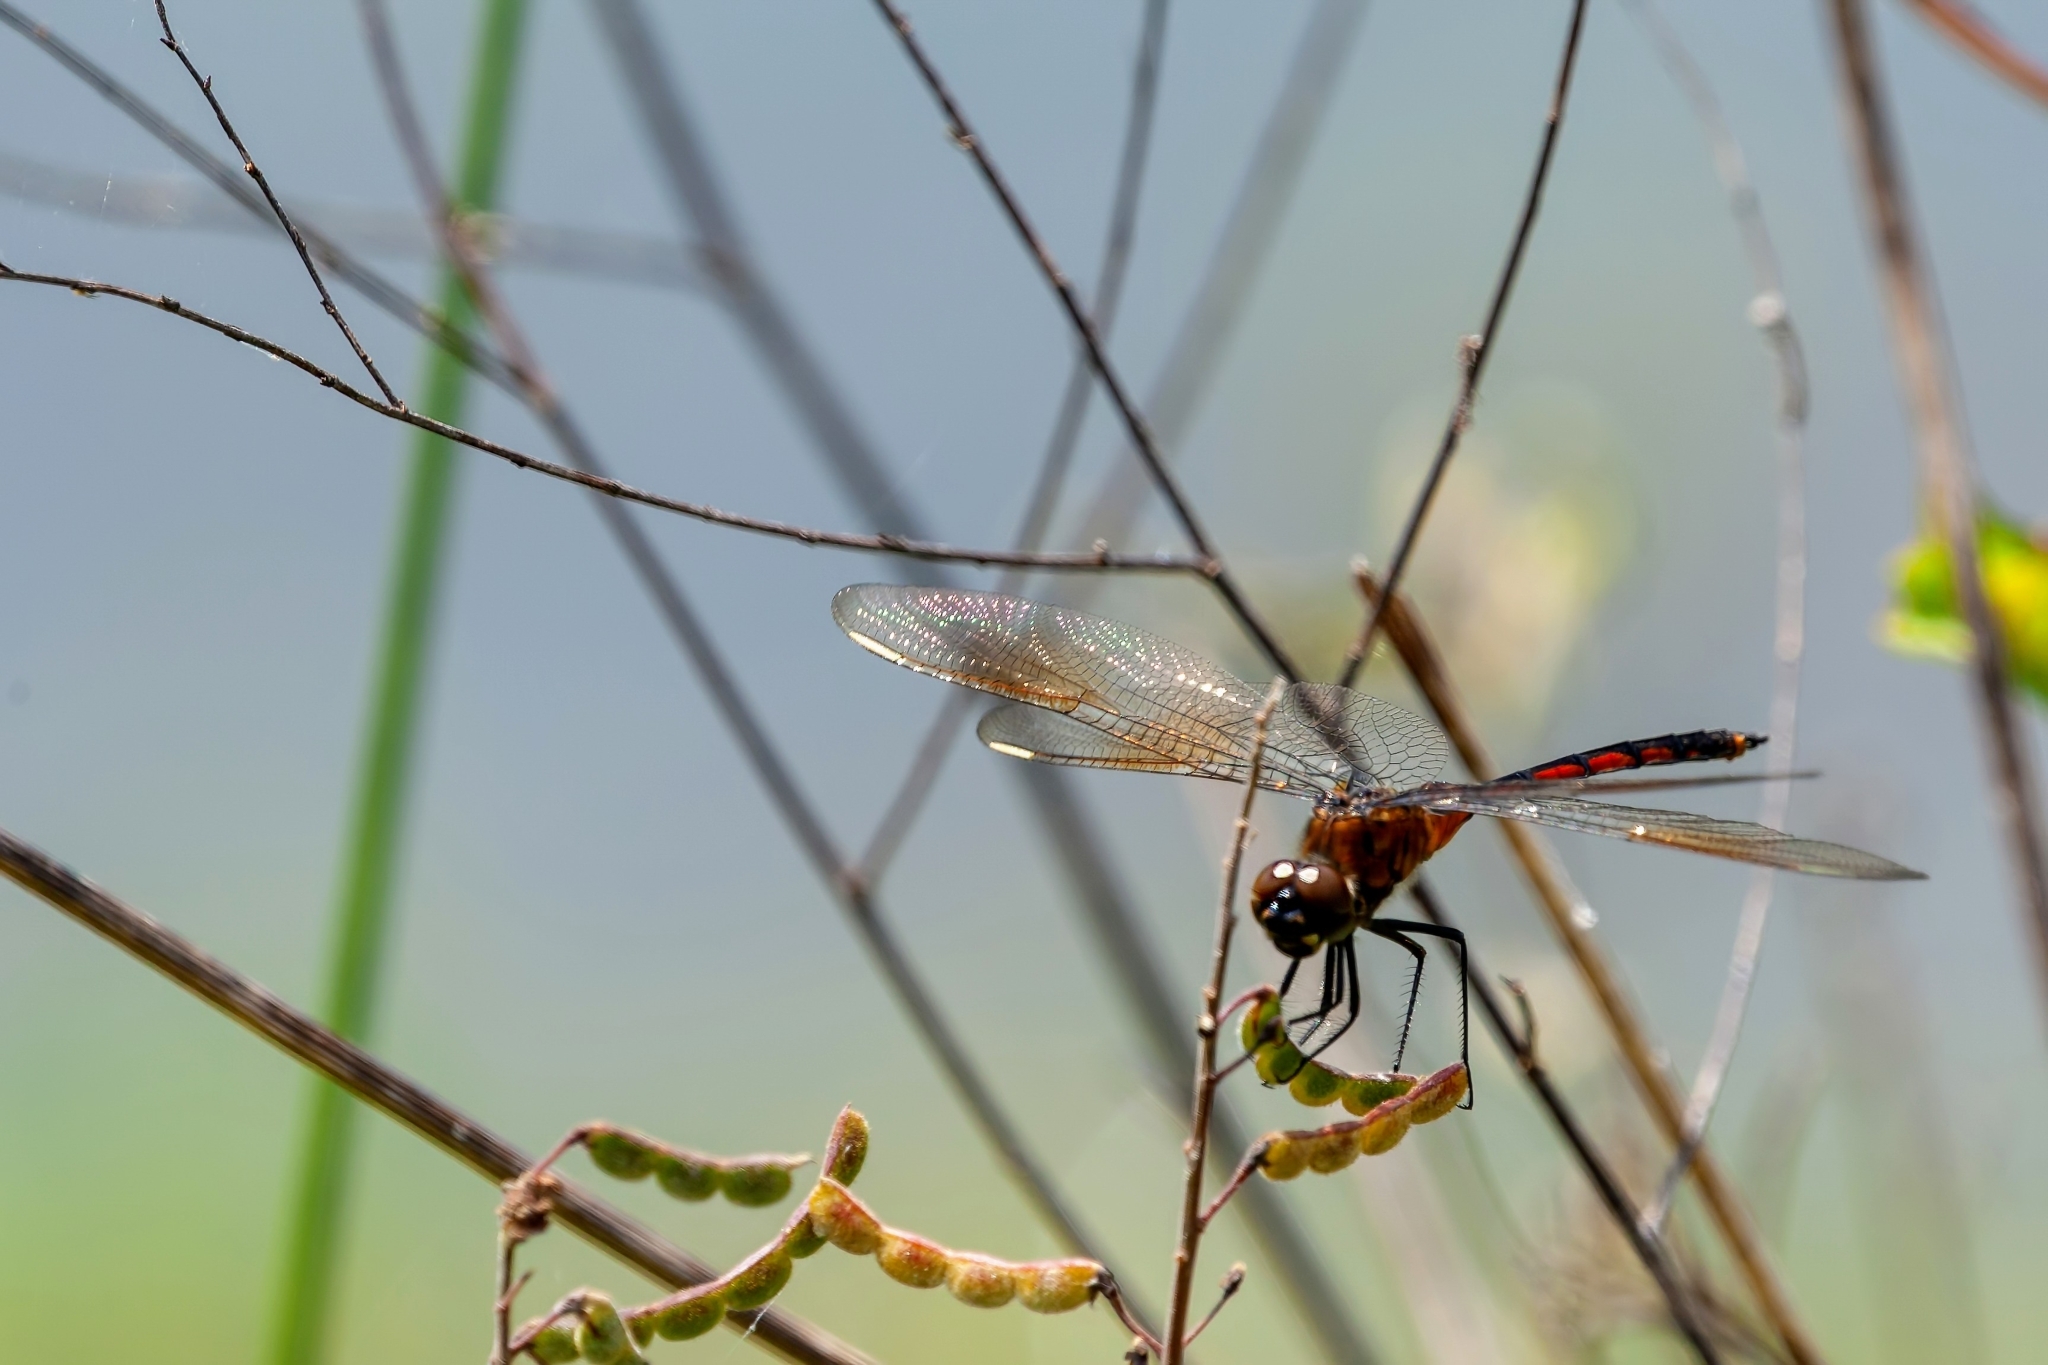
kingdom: Animalia
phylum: Arthropoda
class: Insecta
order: Odonata
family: Libellulidae
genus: Brachymesia
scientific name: Brachymesia gravida
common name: Four-spotted pennant
